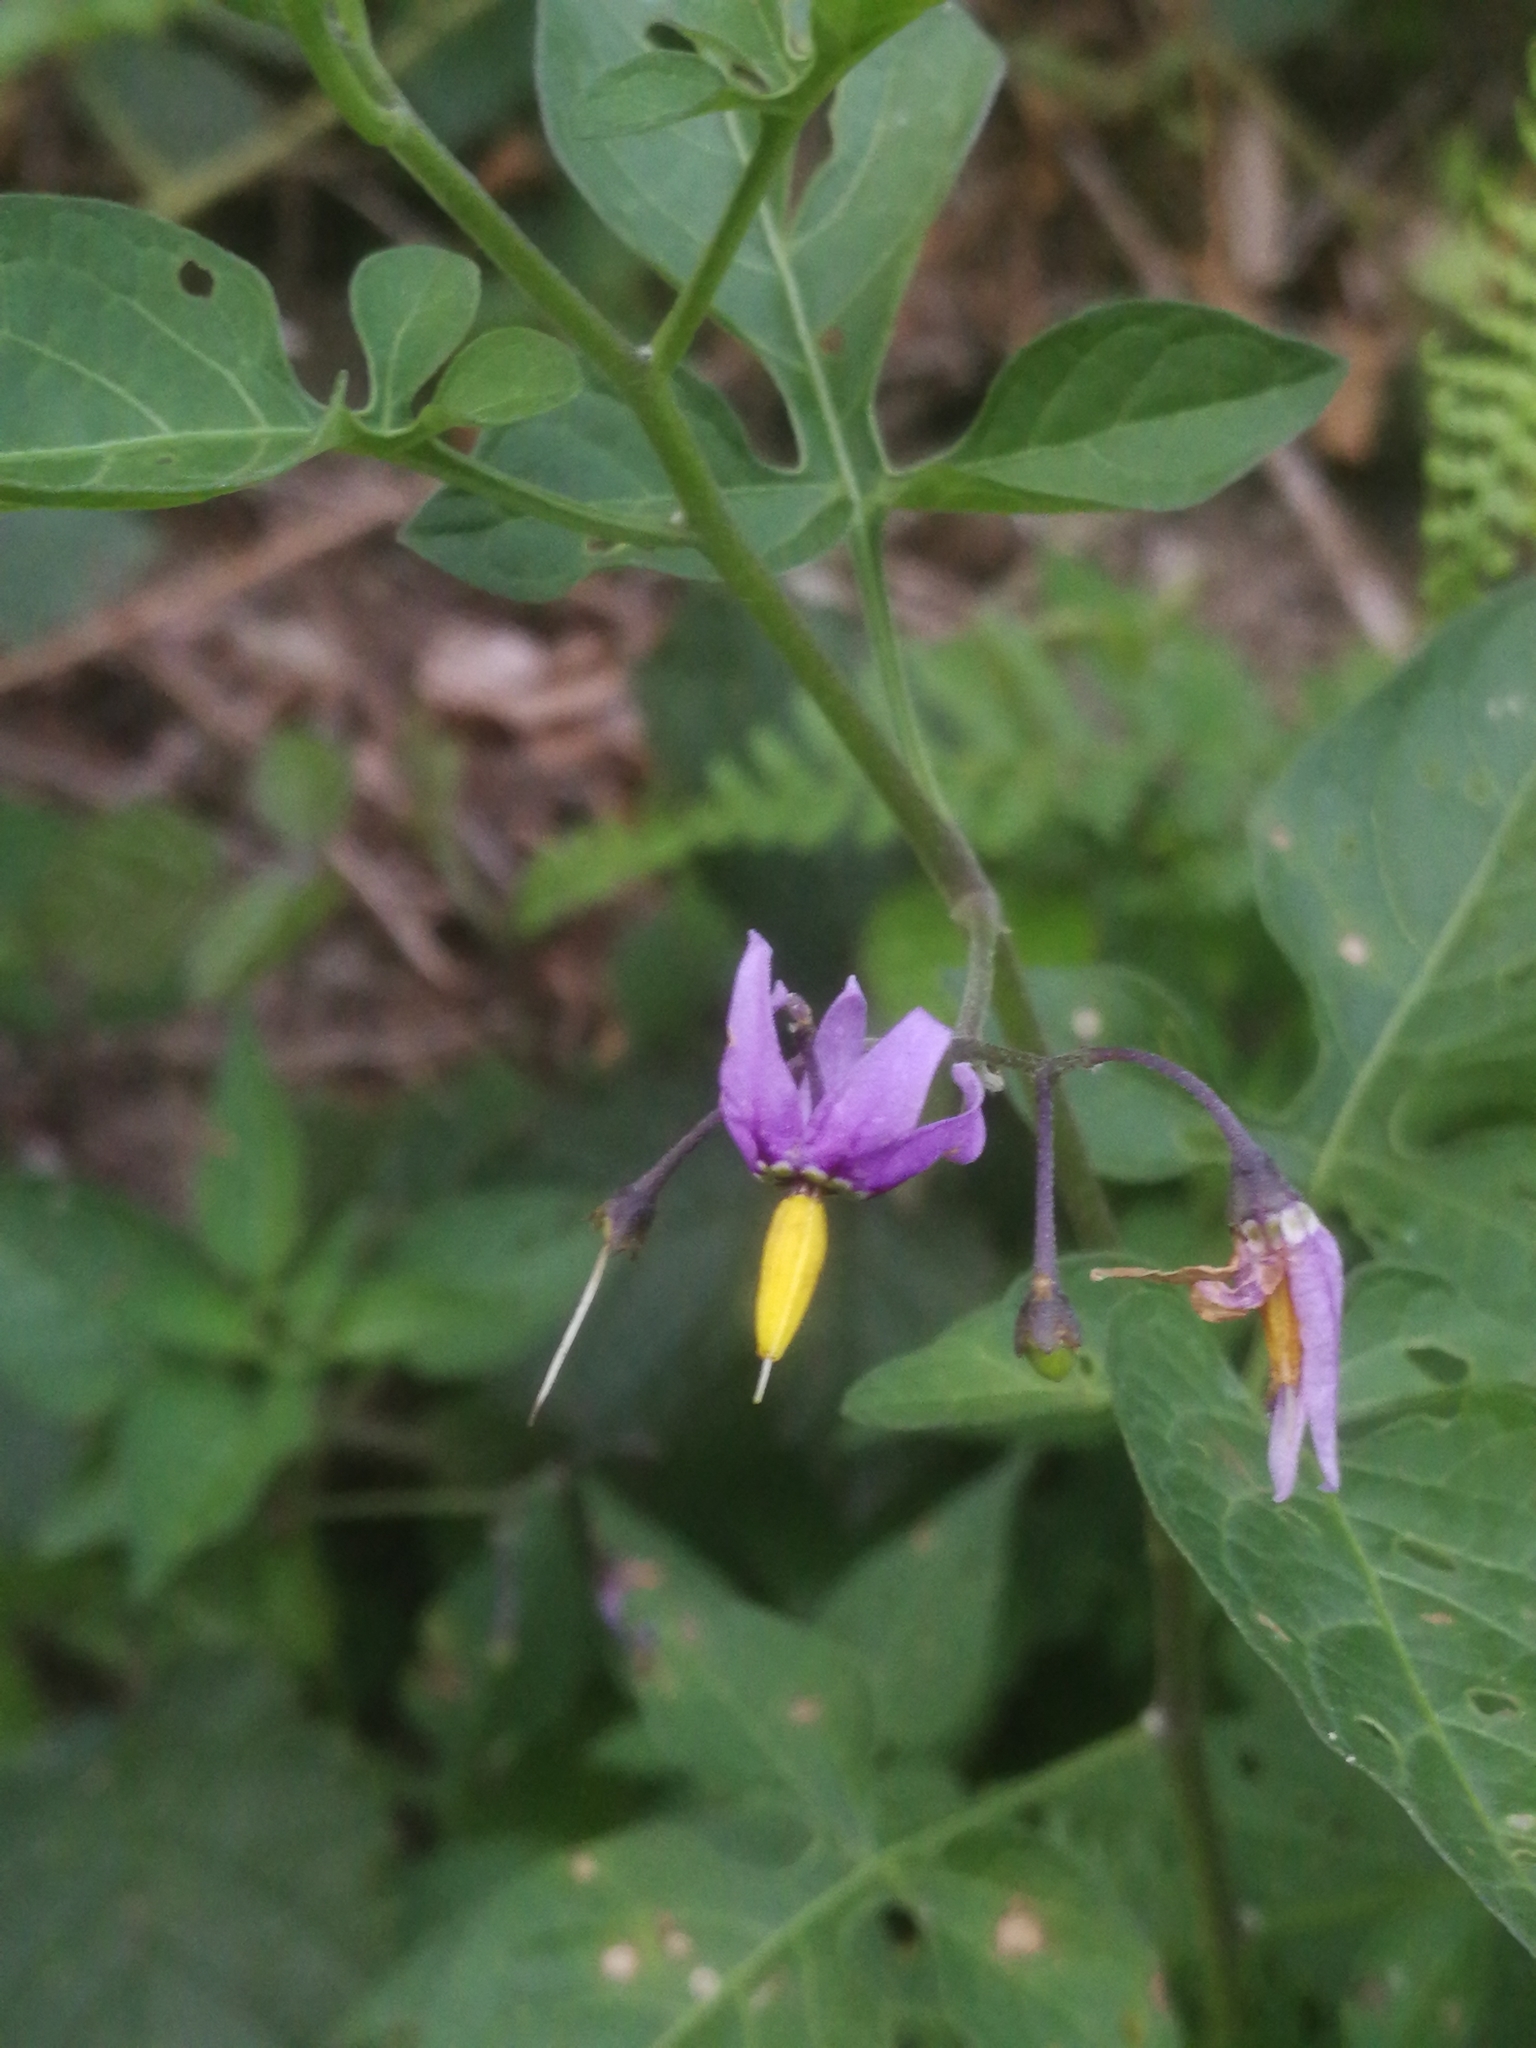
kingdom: Plantae
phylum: Tracheophyta
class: Magnoliopsida
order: Solanales
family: Solanaceae
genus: Solanum
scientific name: Solanum dulcamara
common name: Climbing nightshade
